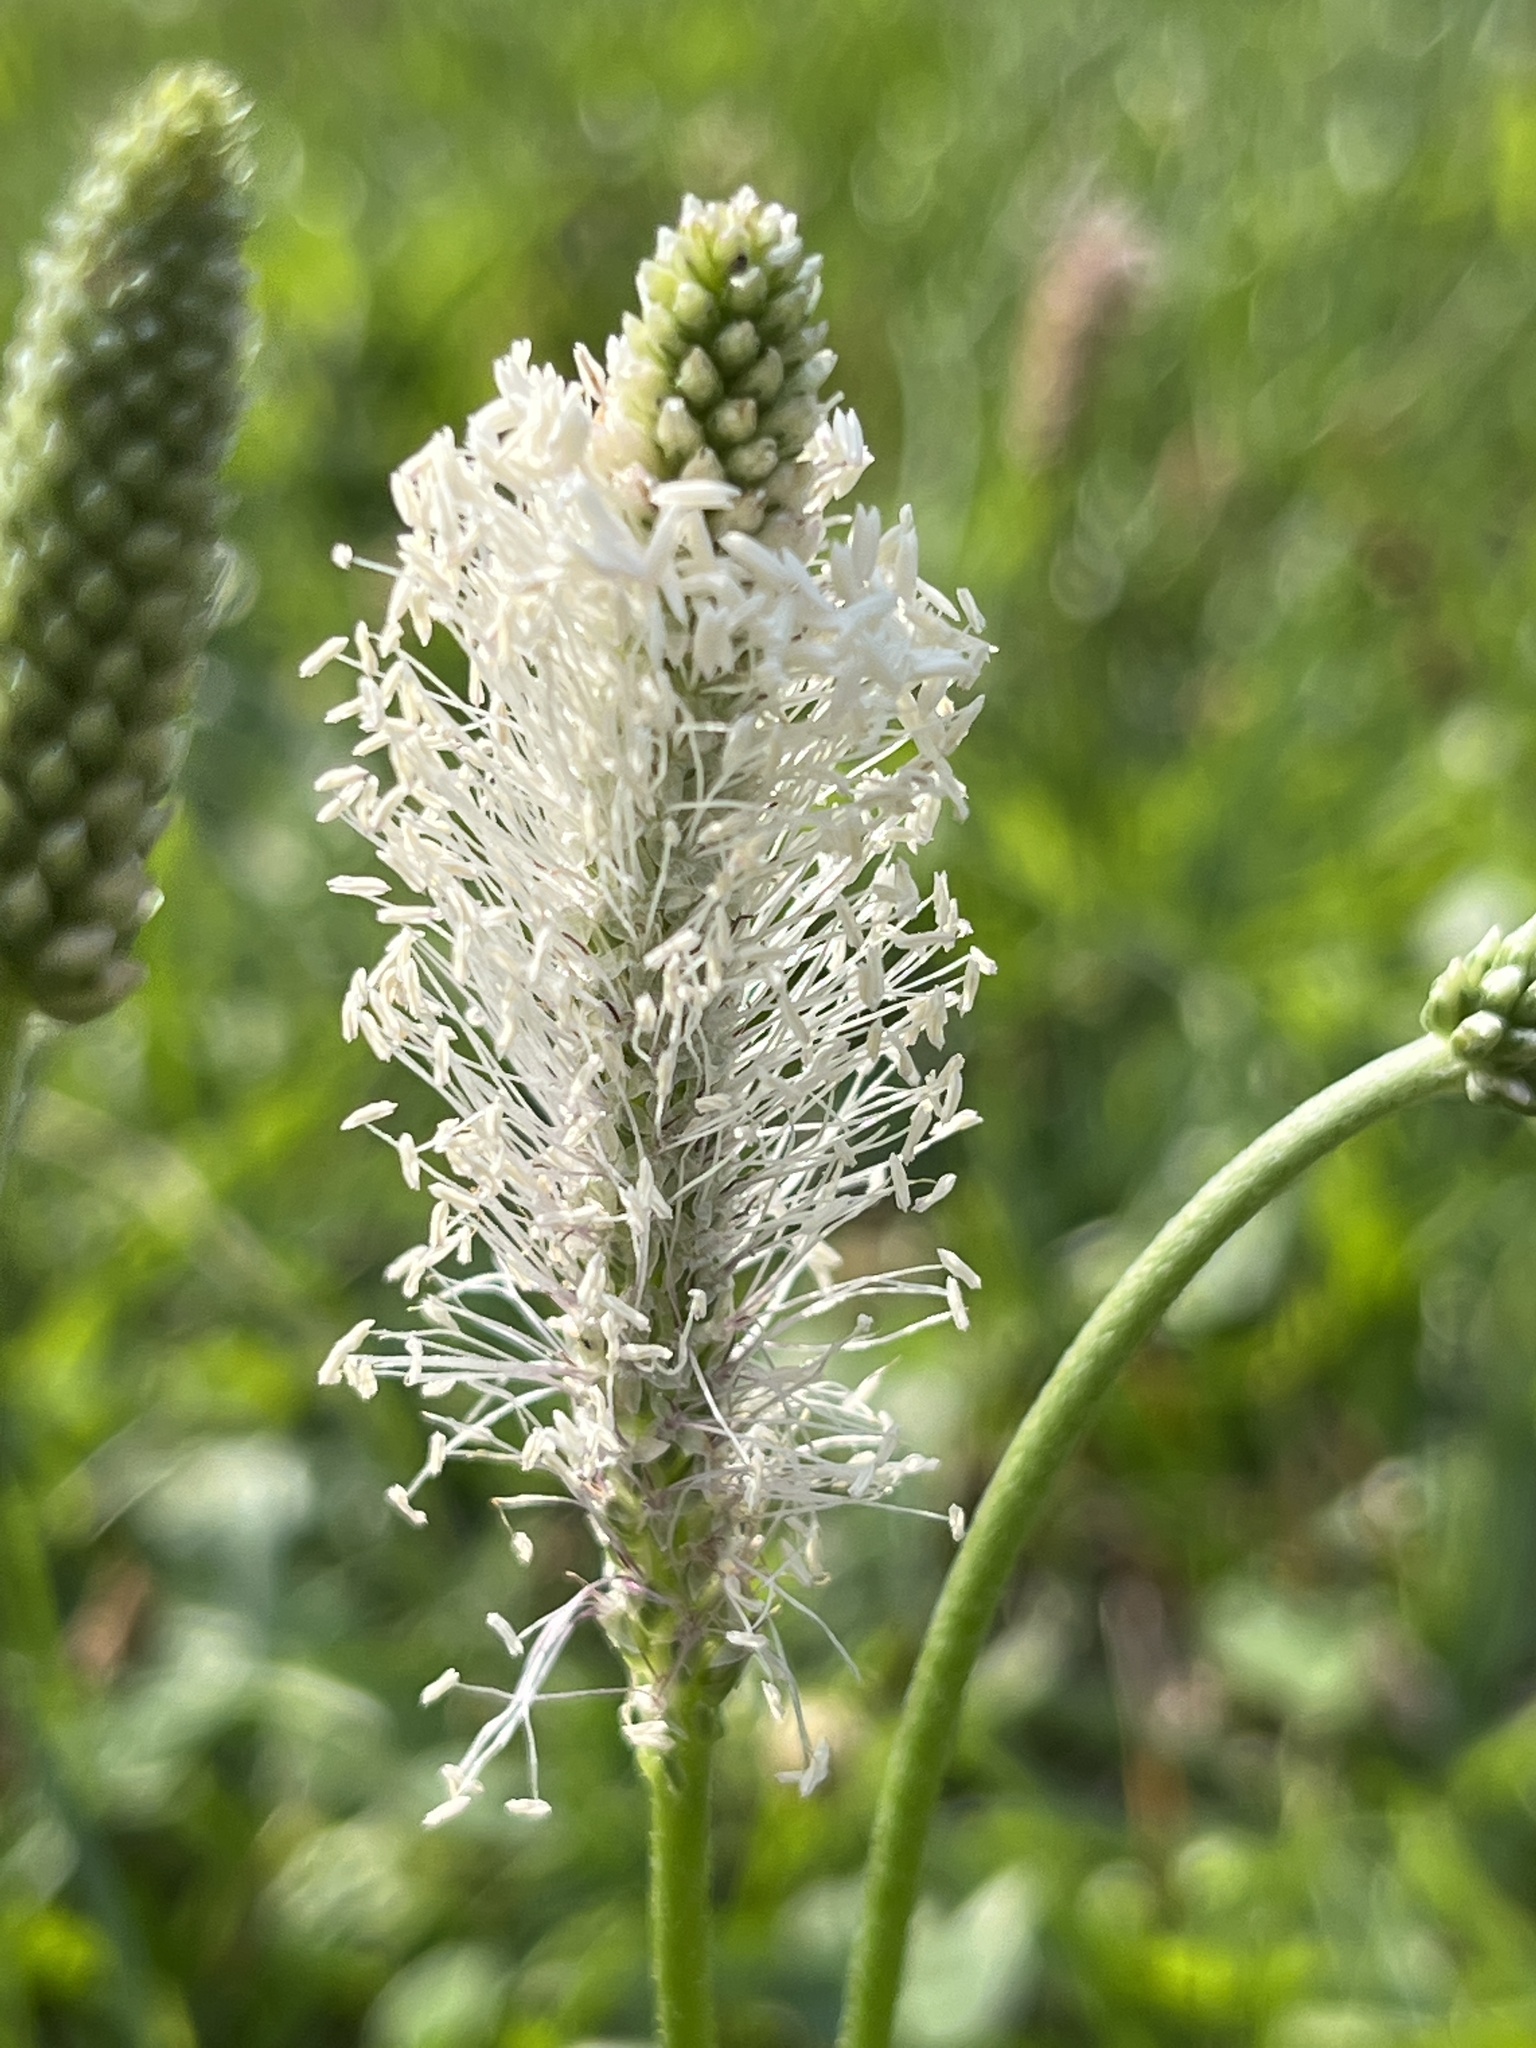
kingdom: Plantae
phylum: Tracheophyta
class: Magnoliopsida
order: Lamiales
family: Plantaginaceae
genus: Plantago
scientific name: Plantago media
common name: Hoary plantain
